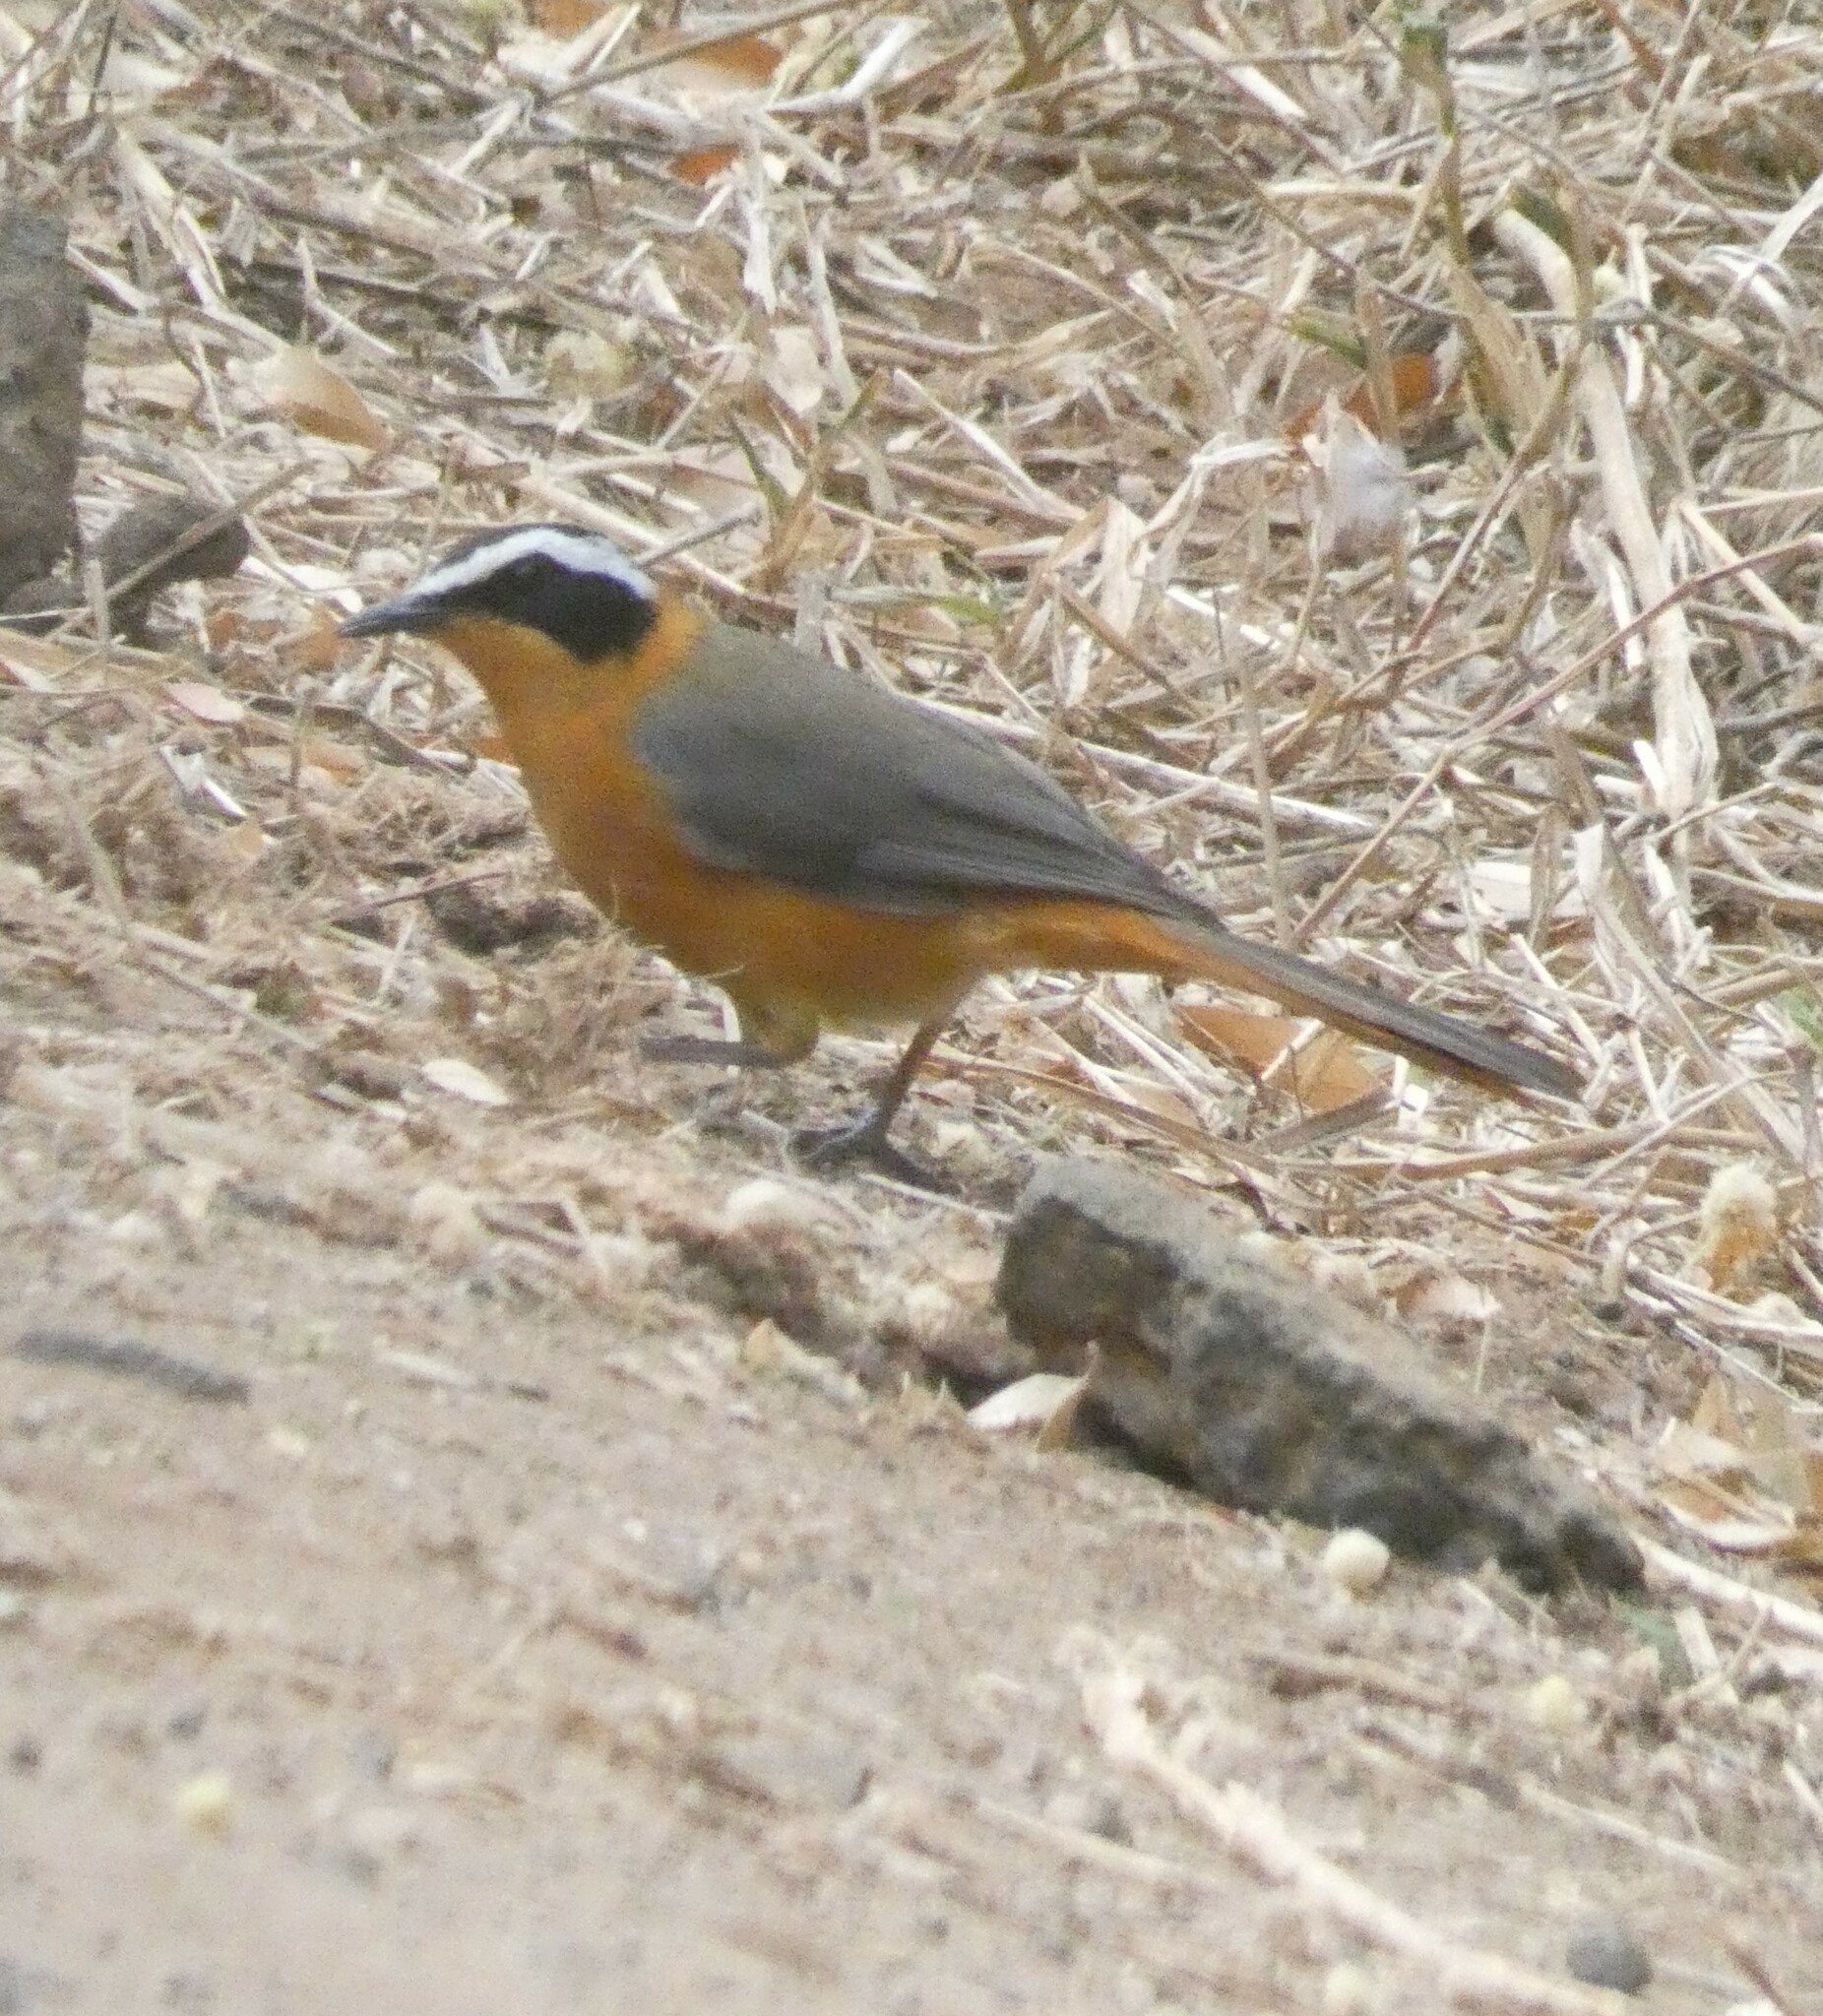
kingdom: Animalia
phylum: Chordata
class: Aves
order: Passeriformes
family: Muscicapidae
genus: Cossypha
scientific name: Cossypha heuglini
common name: White-browed robin-chat
